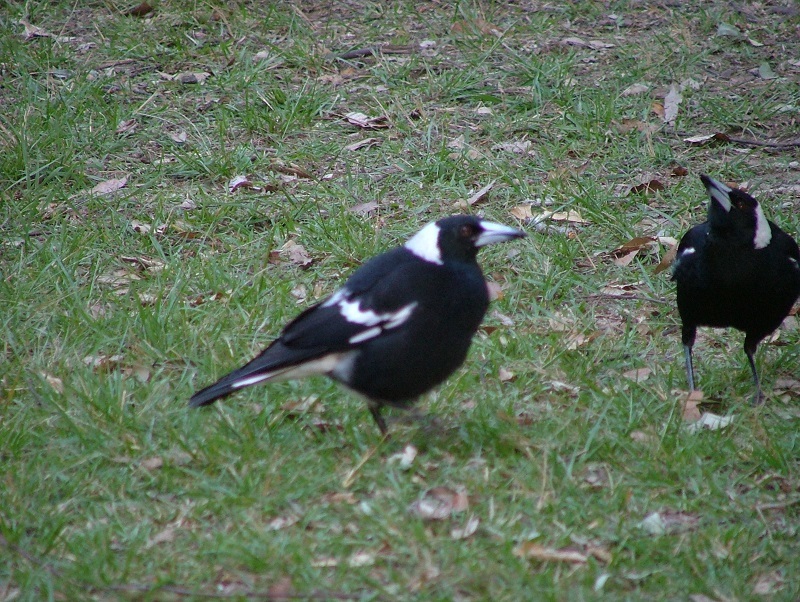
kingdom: Animalia
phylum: Chordata
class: Aves
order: Passeriformes
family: Cracticidae
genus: Gymnorhina
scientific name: Gymnorhina tibicen
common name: Australian magpie
